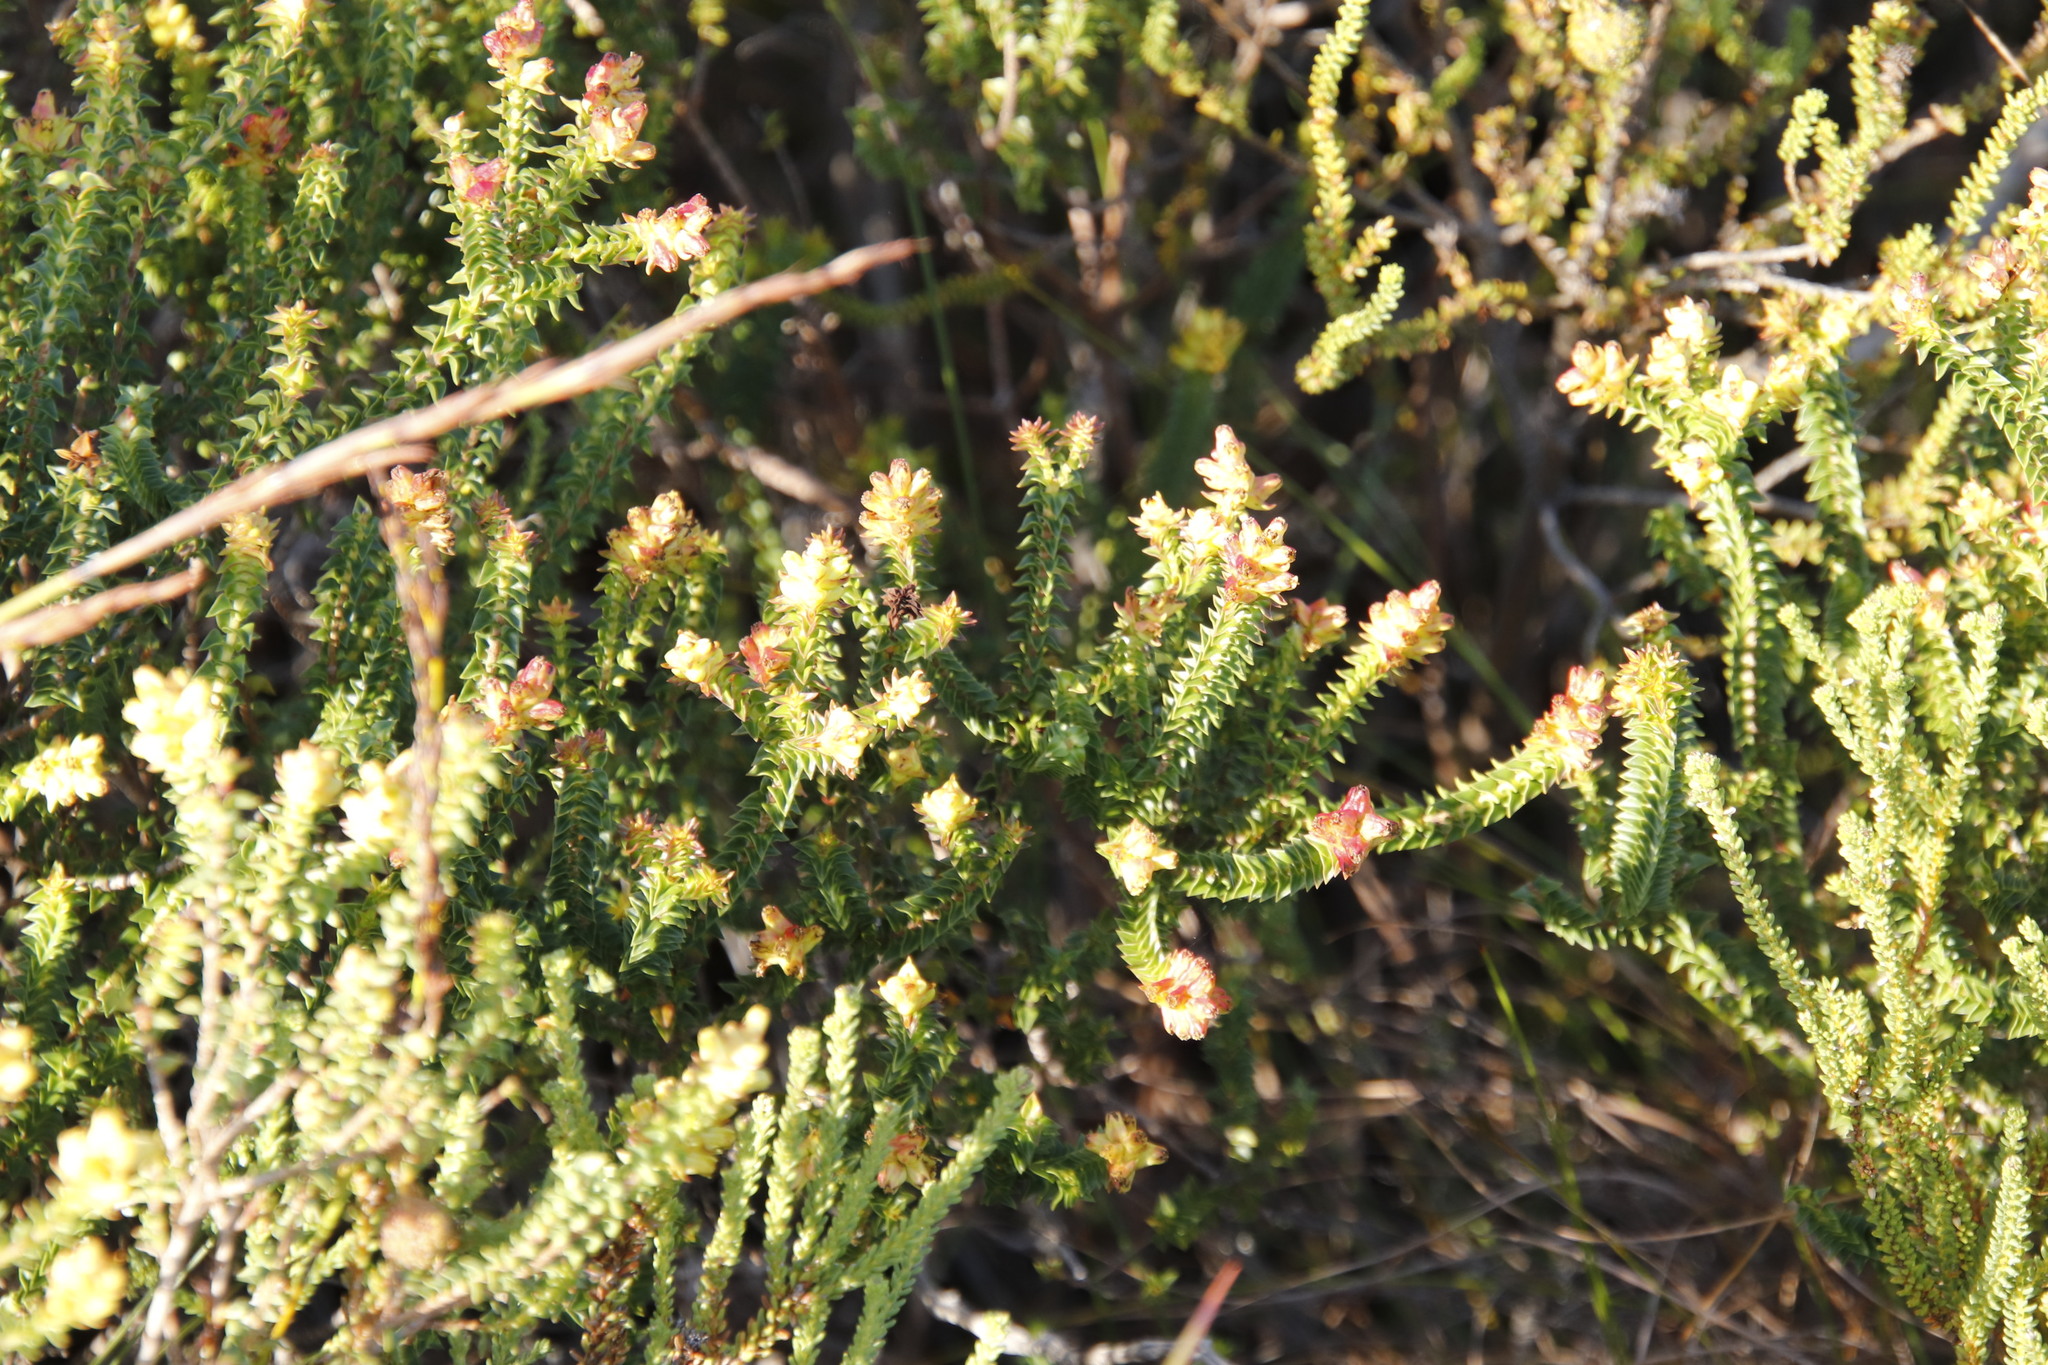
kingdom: Plantae
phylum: Tracheophyta
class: Magnoliopsida
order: Myrtales
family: Penaeaceae
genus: Penaea
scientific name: Penaea mucronata
